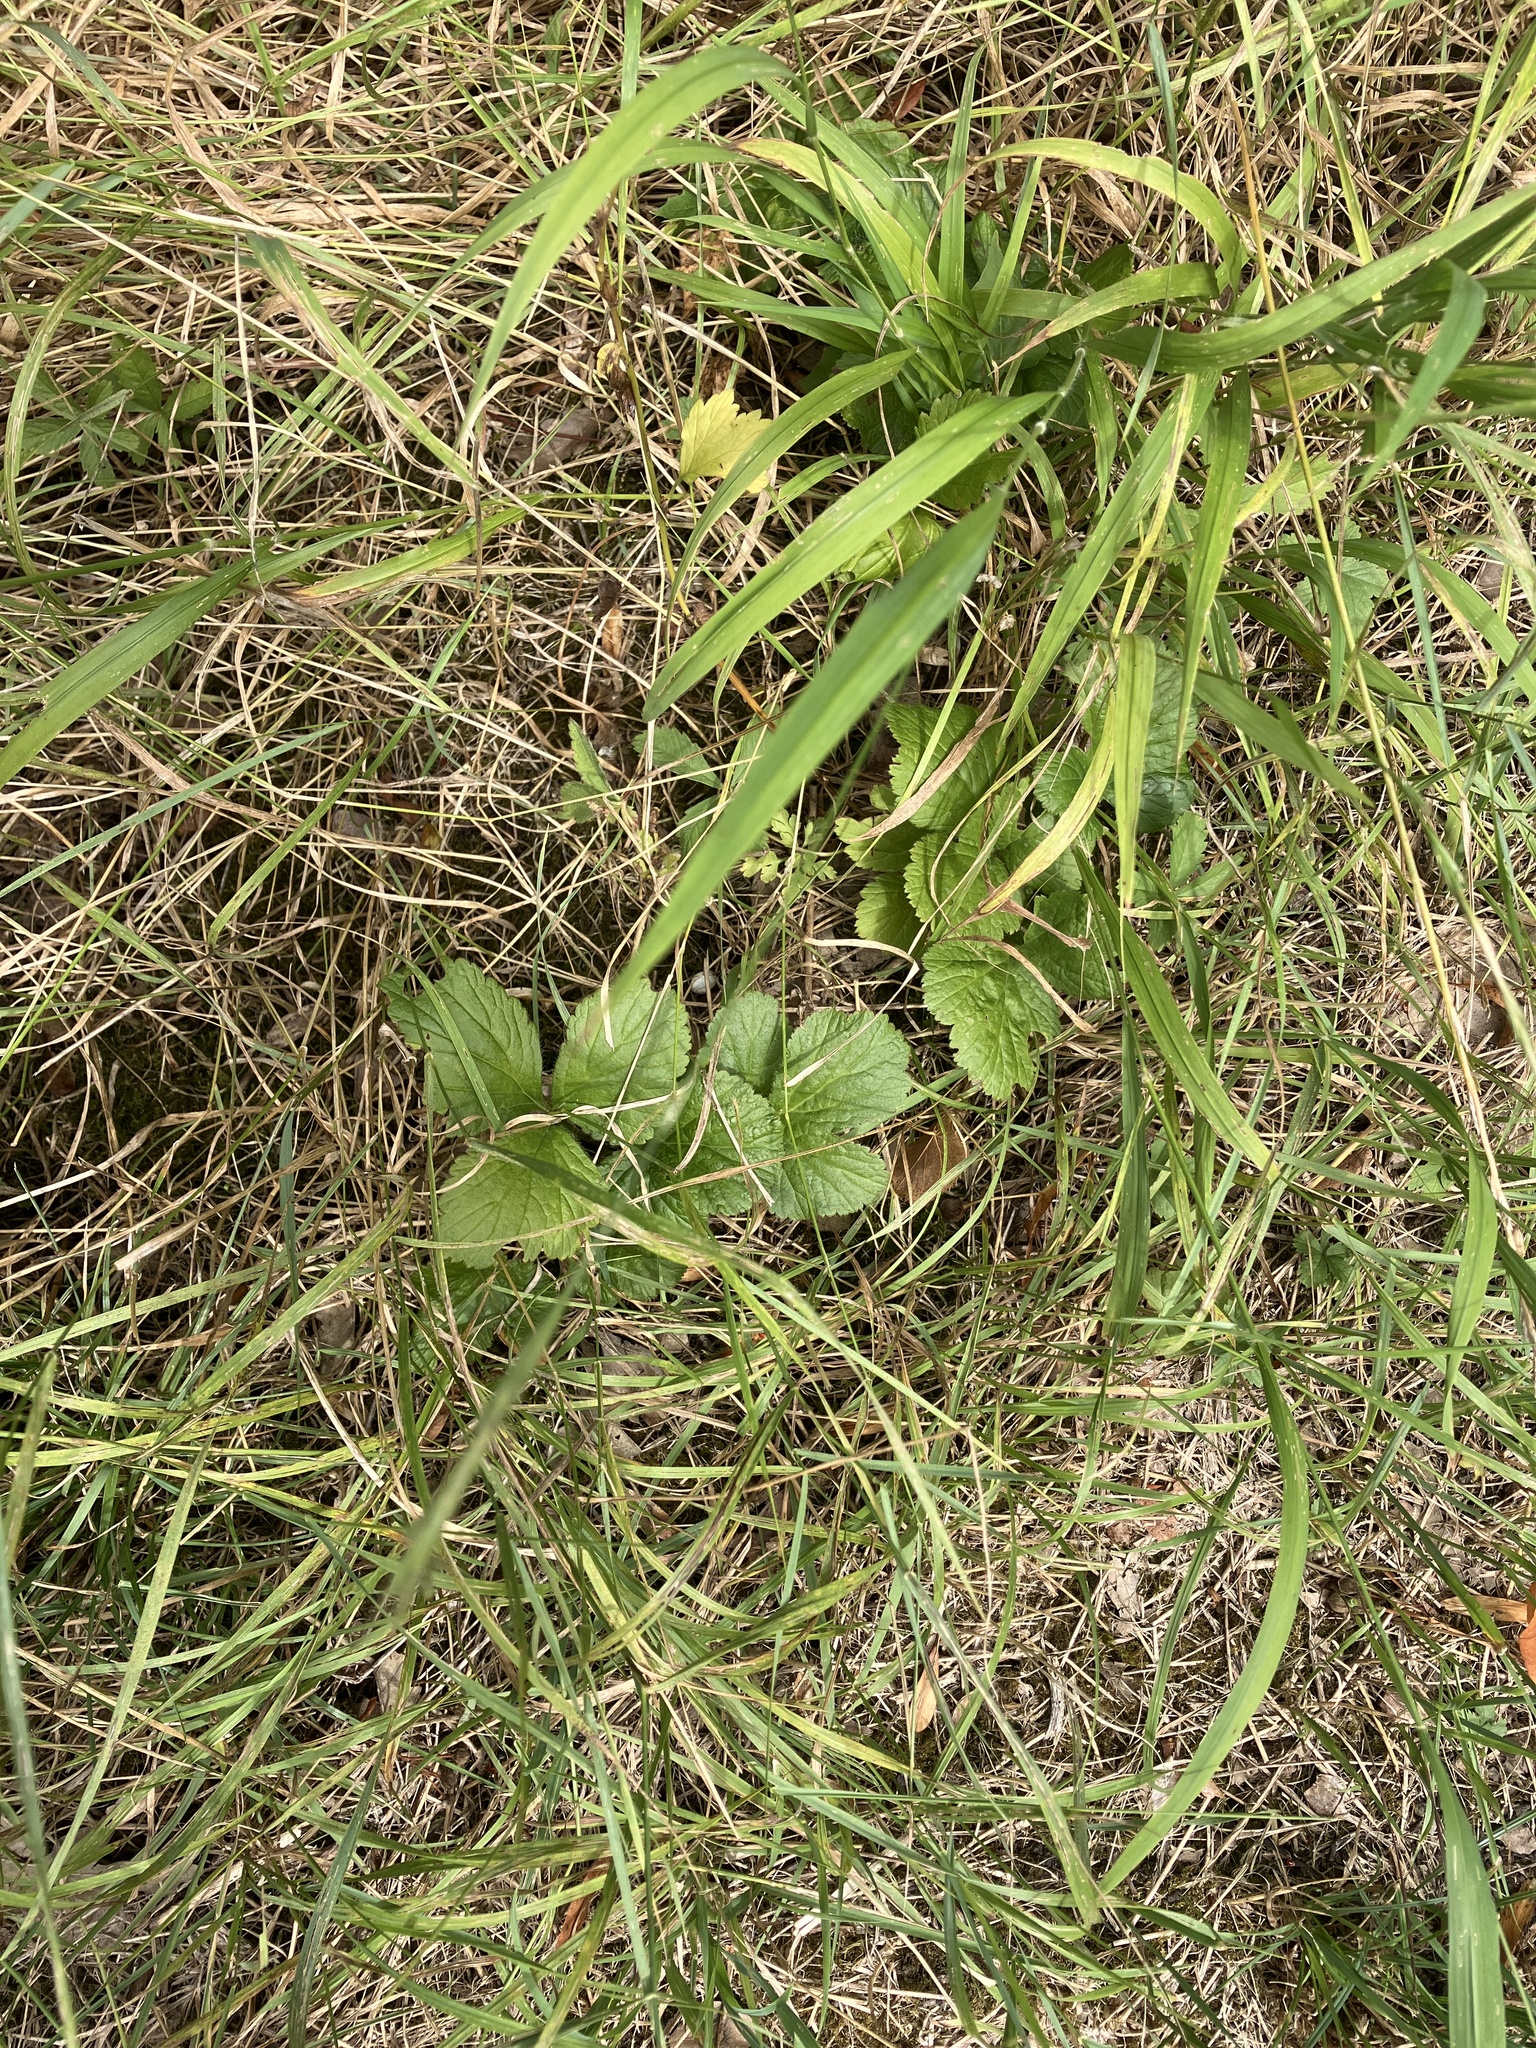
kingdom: Plantae
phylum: Tracheophyta
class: Magnoliopsida
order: Rosales
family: Rosaceae
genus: Geum
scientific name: Geum urbanum
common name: Wood avens
